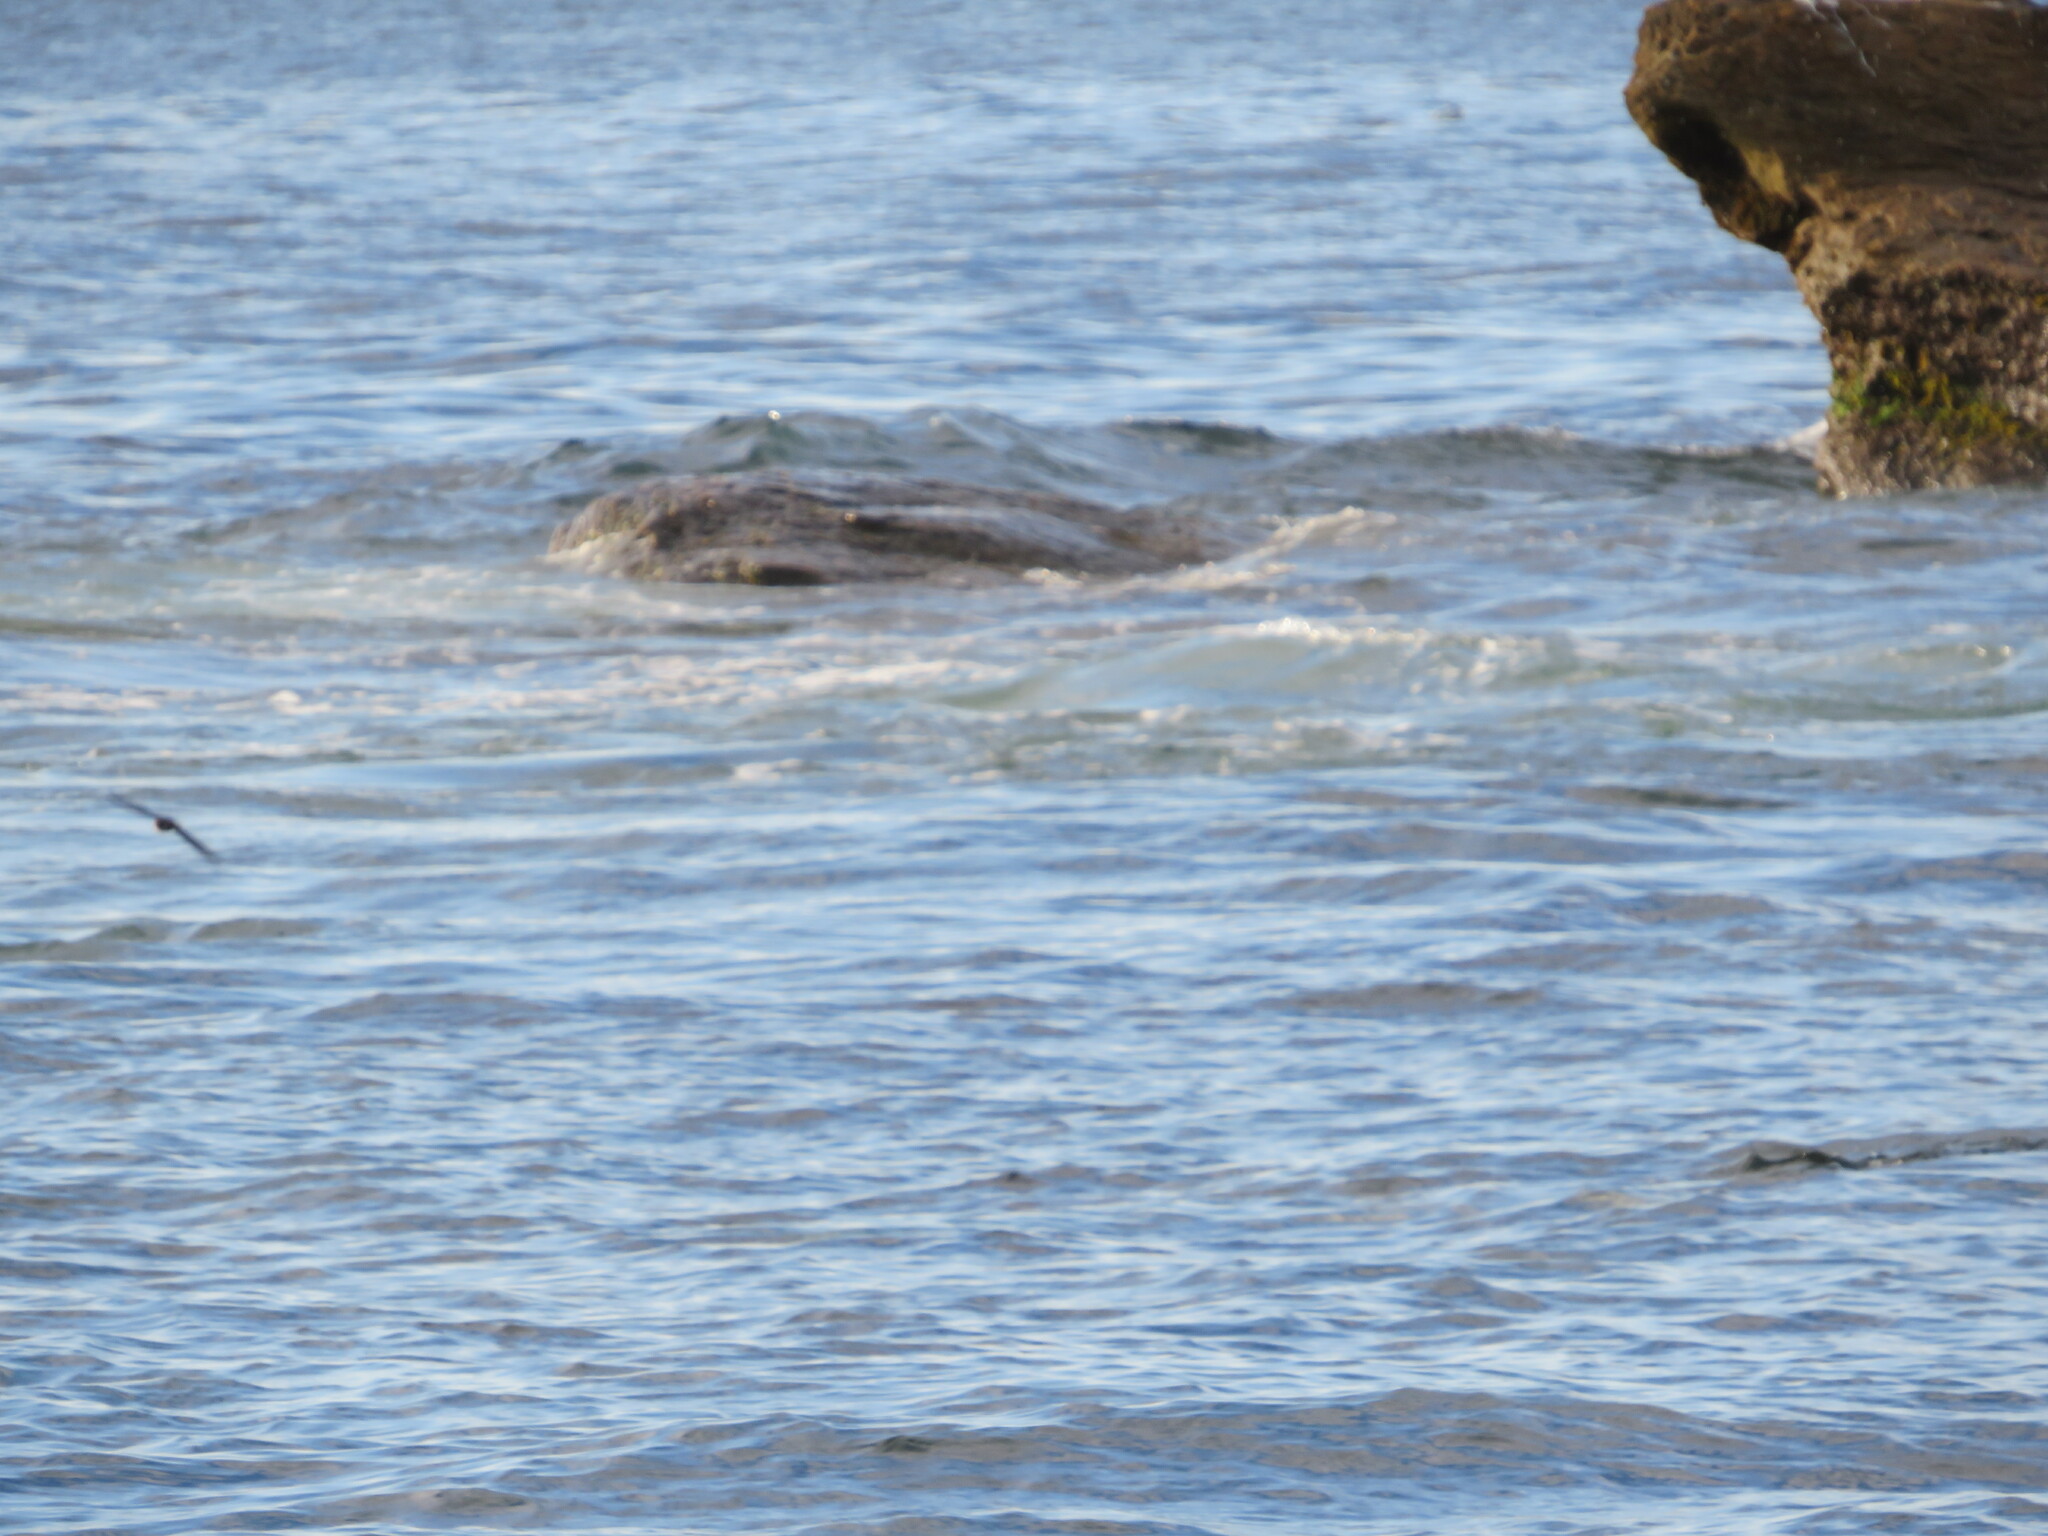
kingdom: Animalia
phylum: Chordata
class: Aves
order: Passeriformes
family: Hirundinidae
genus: Riparia
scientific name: Riparia riparia
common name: Sand martin
